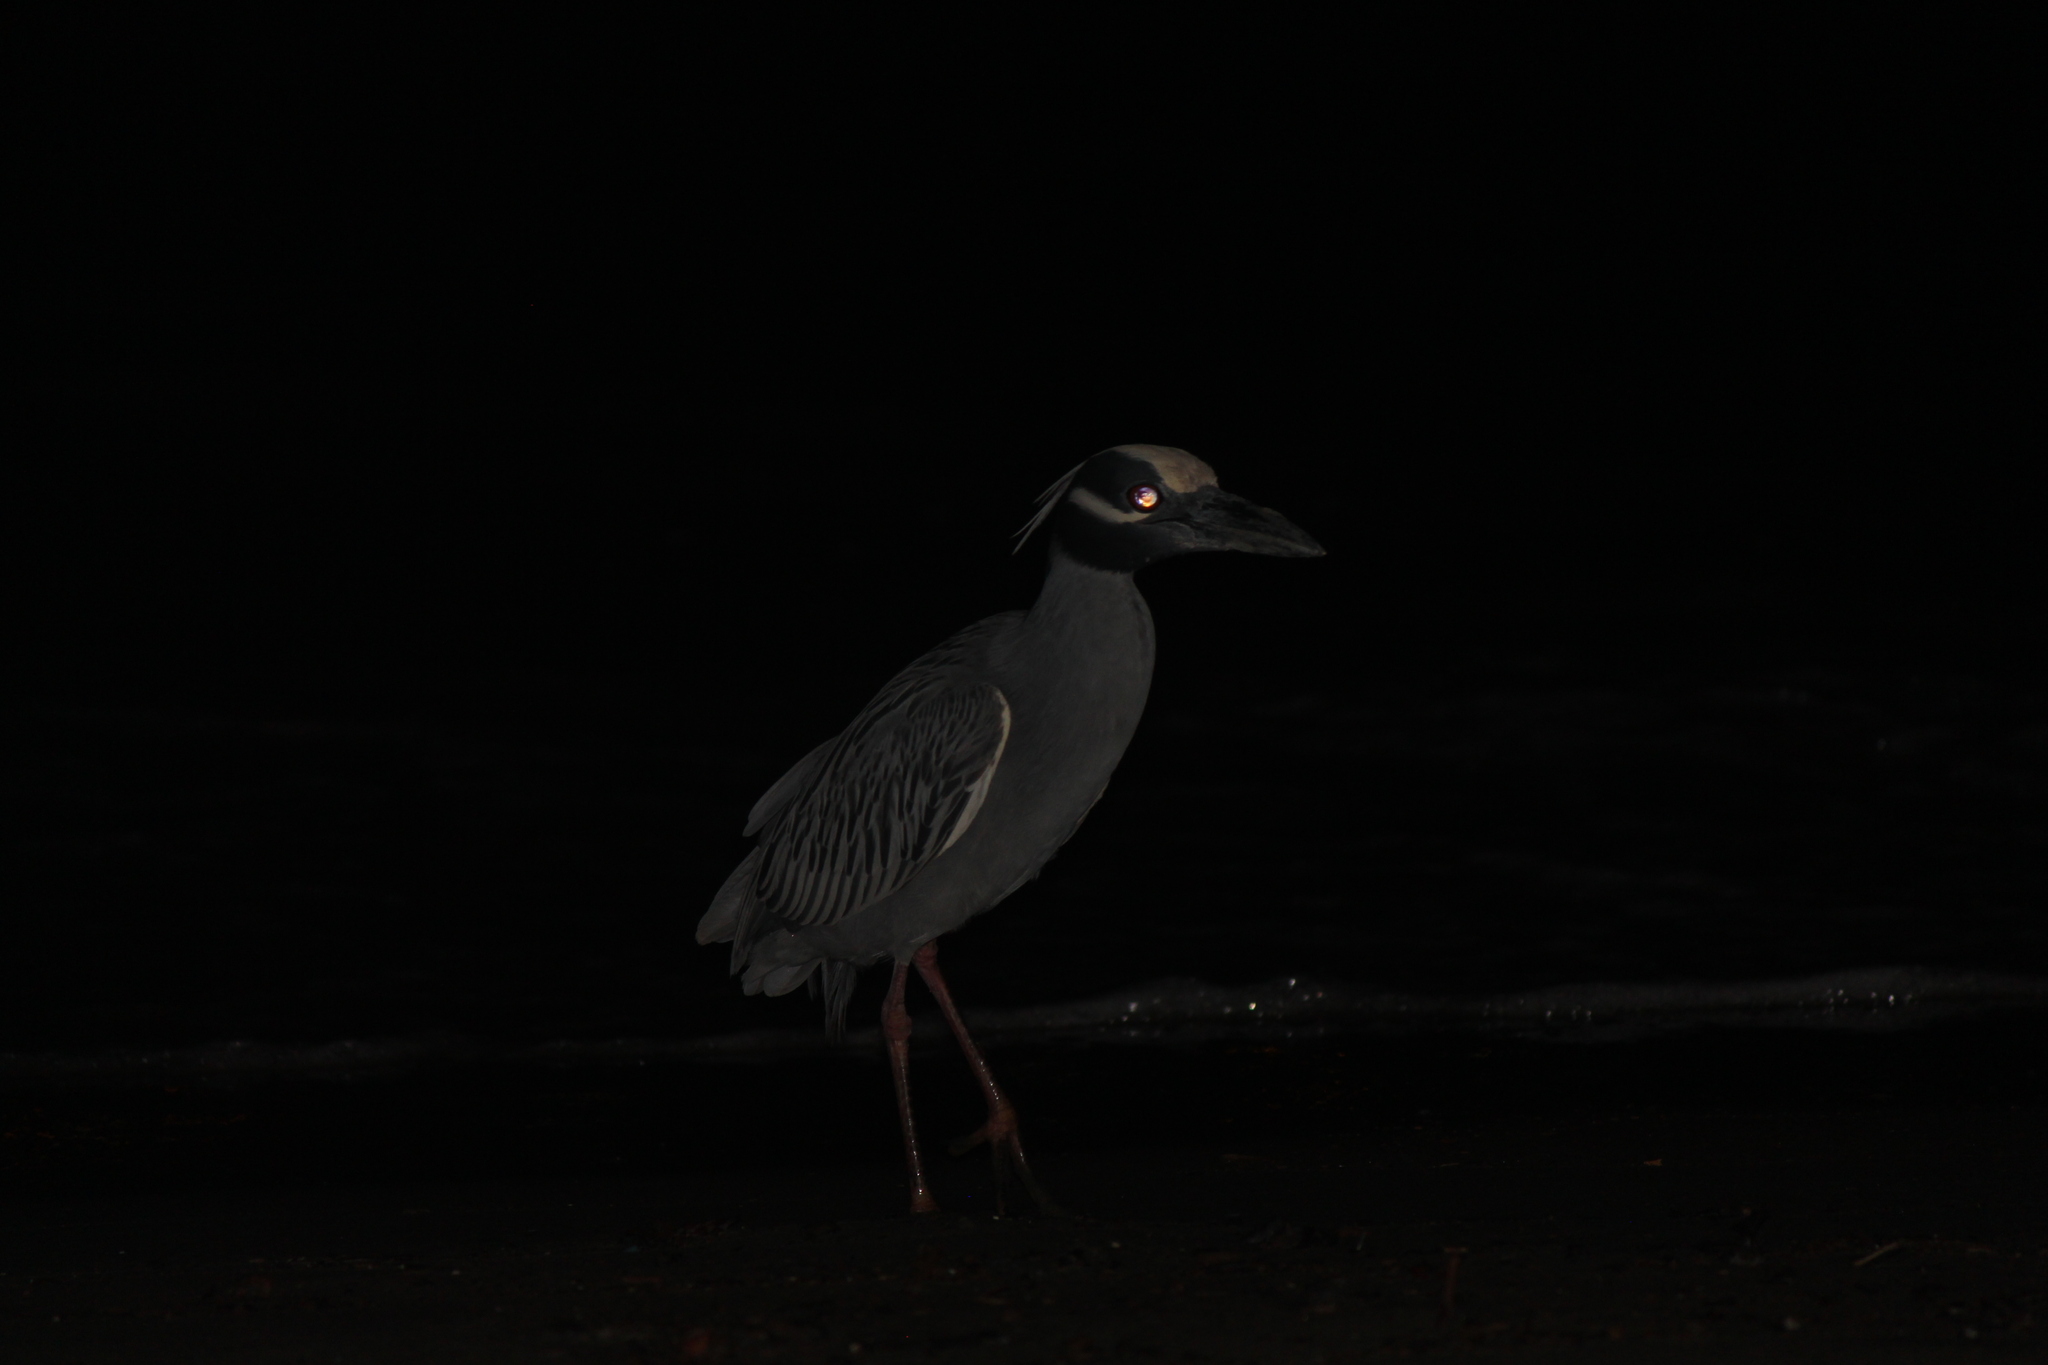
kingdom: Animalia
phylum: Chordata
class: Aves
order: Pelecaniformes
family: Ardeidae
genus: Nyctanassa
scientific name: Nyctanassa violacea
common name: Yellow-crowned night heron
